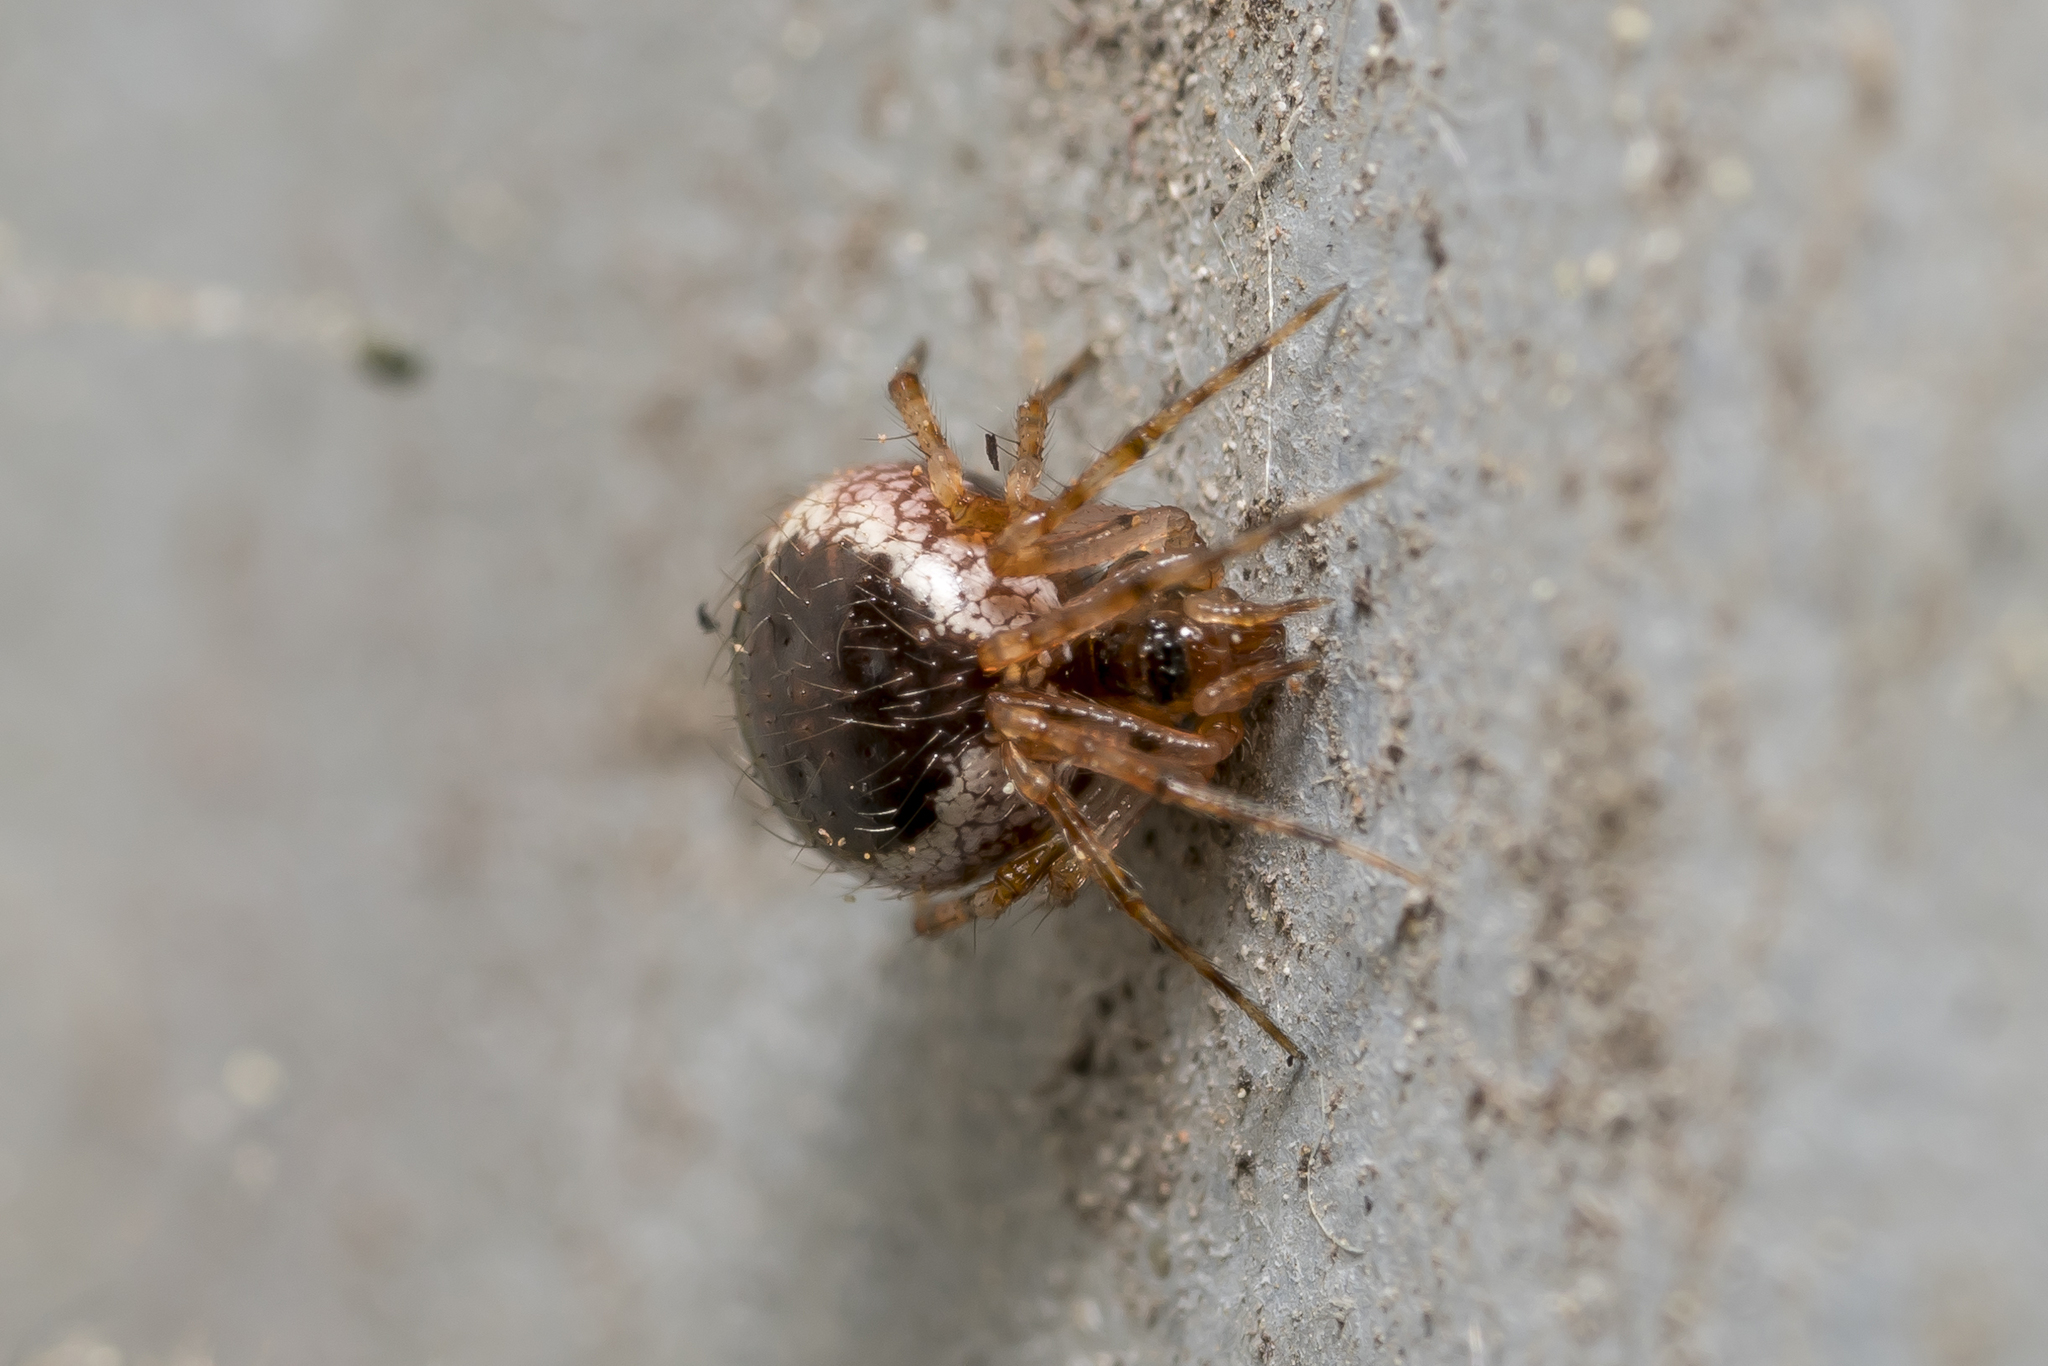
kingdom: Animalia
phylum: Arthropoda
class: Arachnida
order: Araneae
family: Theridiidae
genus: Sardinidion
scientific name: Sardinidion blackwalli
